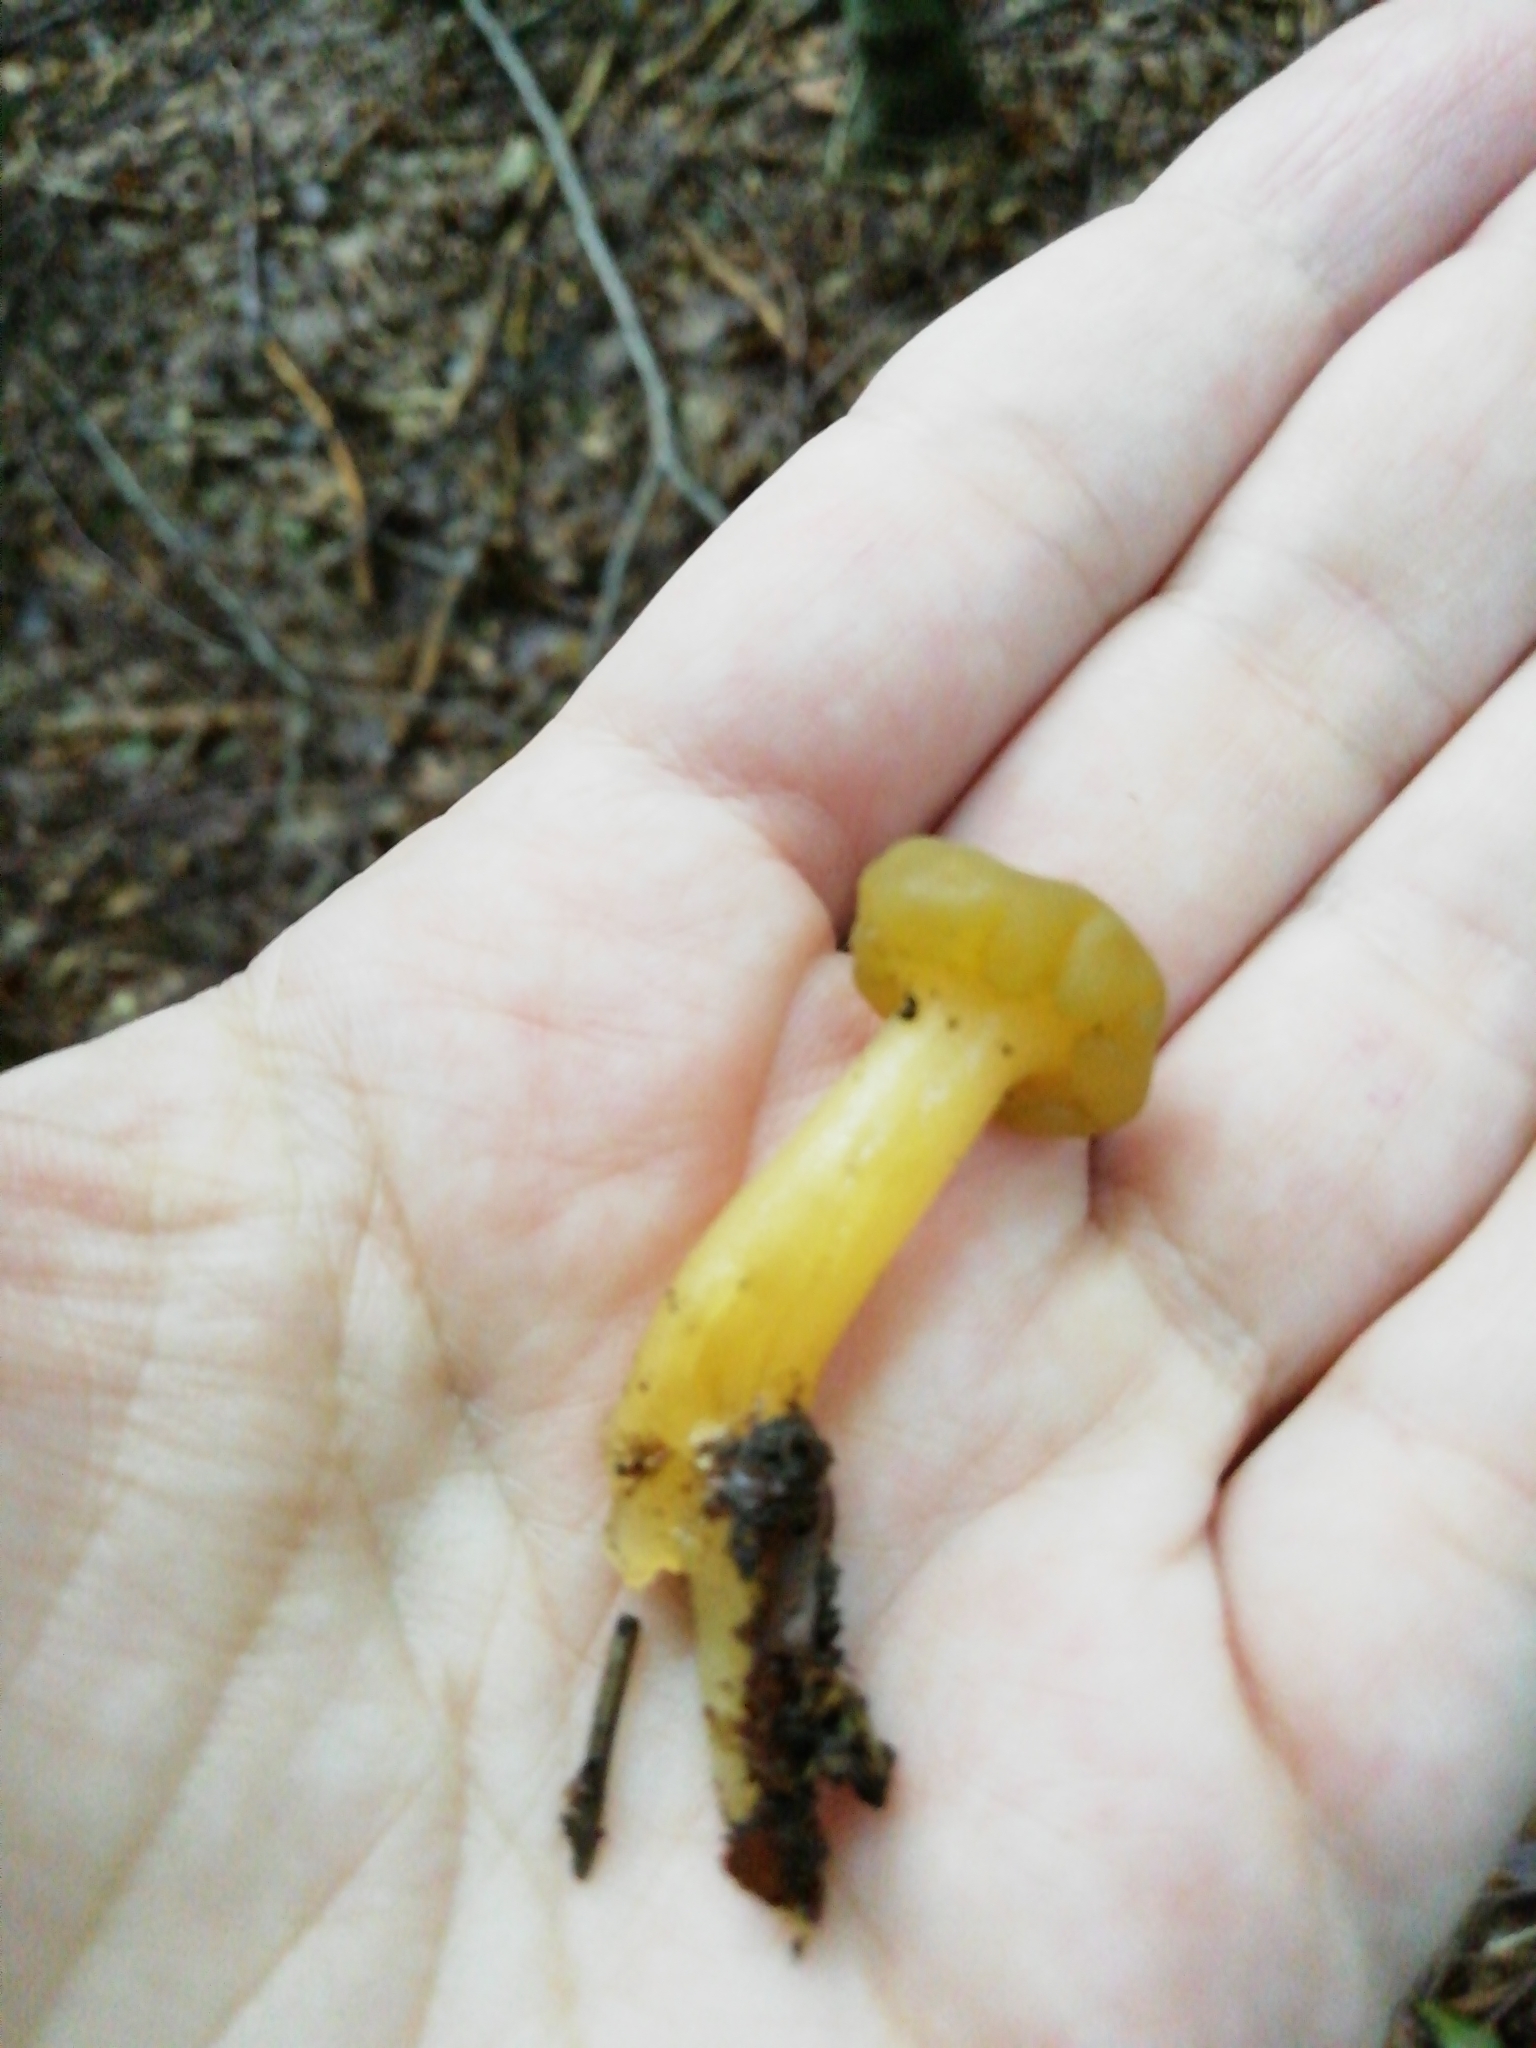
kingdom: Fungi
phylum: Ascomycota
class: Leotiomycetes
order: Leotiales
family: Leotiaceae
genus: Leotia
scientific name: Leotia lubrica
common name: Jellybaby
